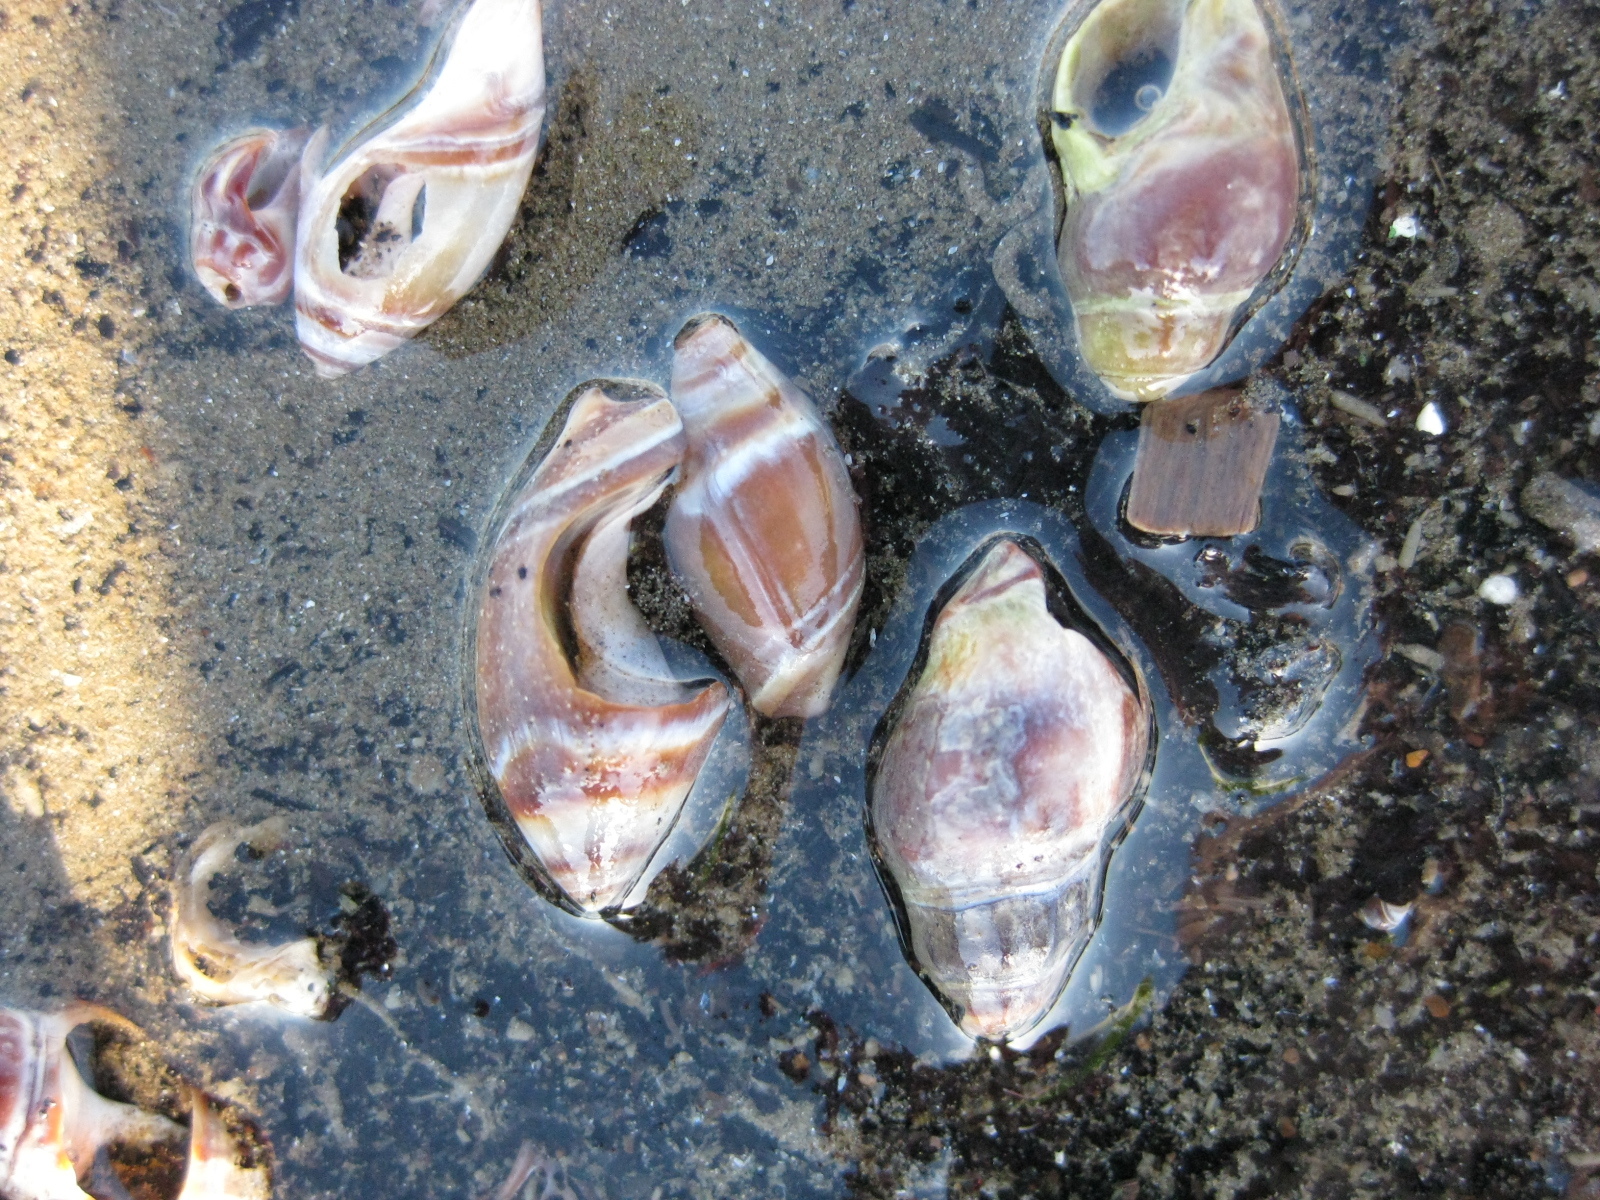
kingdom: Animalia
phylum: Mollusca
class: Gastropoda
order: Neogastropoda
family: Ancillariidae
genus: Amalda
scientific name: Amalda australis
